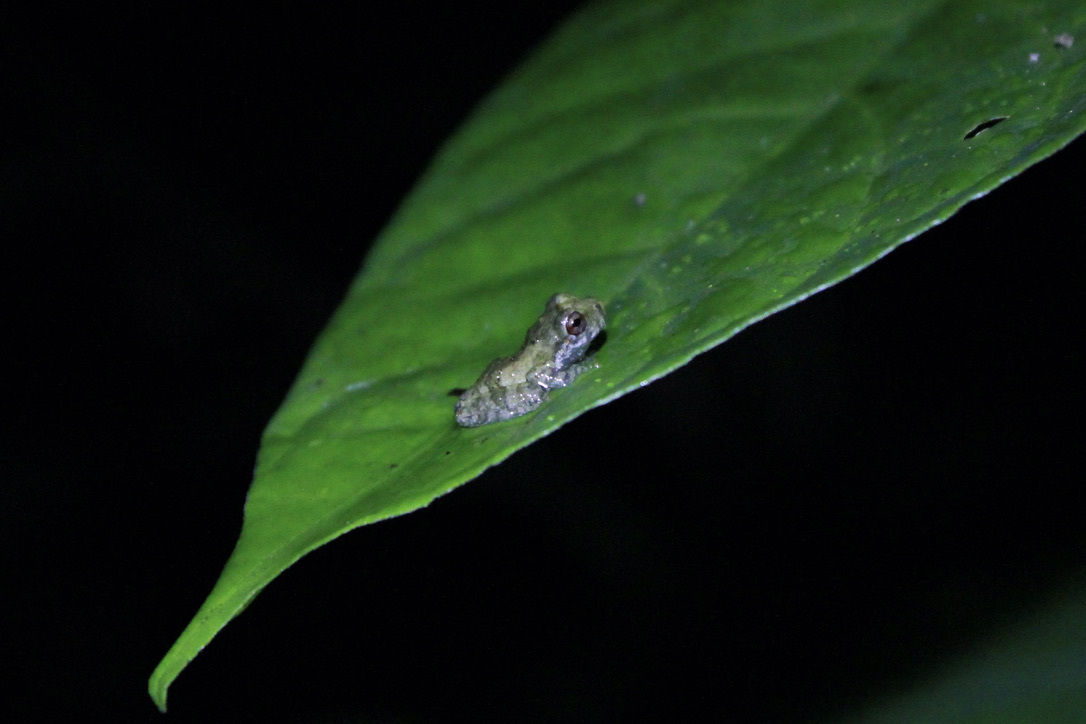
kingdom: Animalia
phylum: Chordata
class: Amphibia
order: Anura
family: Hemiphractidae
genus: Flectonotus
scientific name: Flectonotus fitzgeraldi
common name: Marsupial frog
